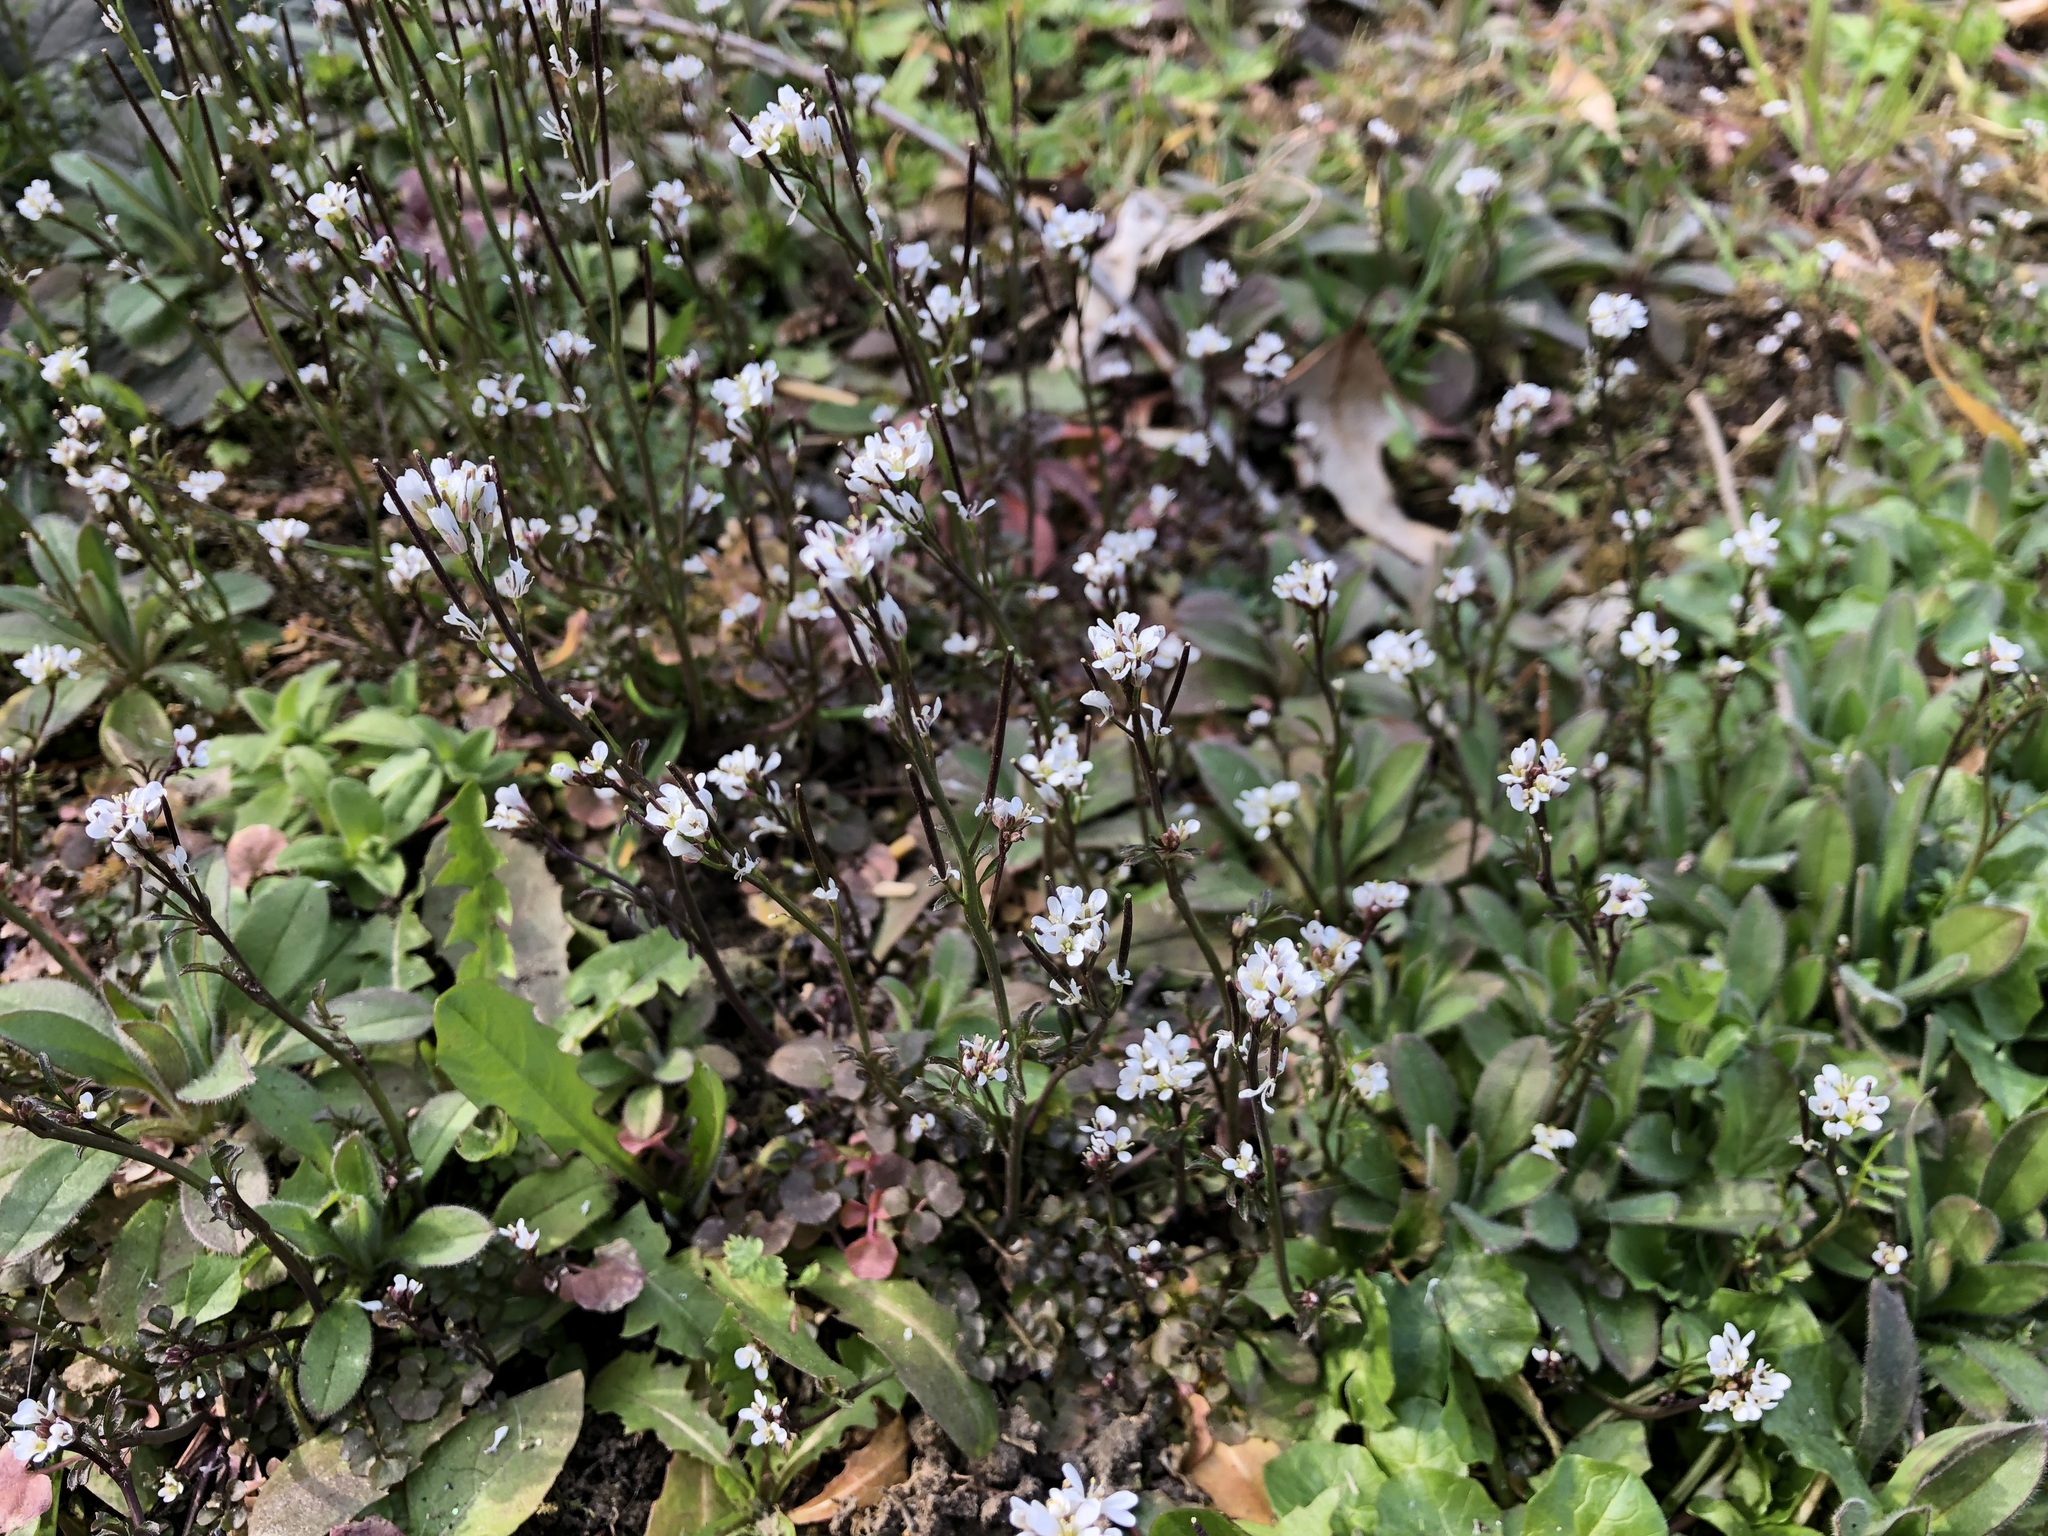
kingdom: Plantae
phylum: Tracheophyta
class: Magnoliopsida
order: Brassicales
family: Brassicaceae
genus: Cardamine
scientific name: Cardamine hirsuta
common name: Hairy bittercress
